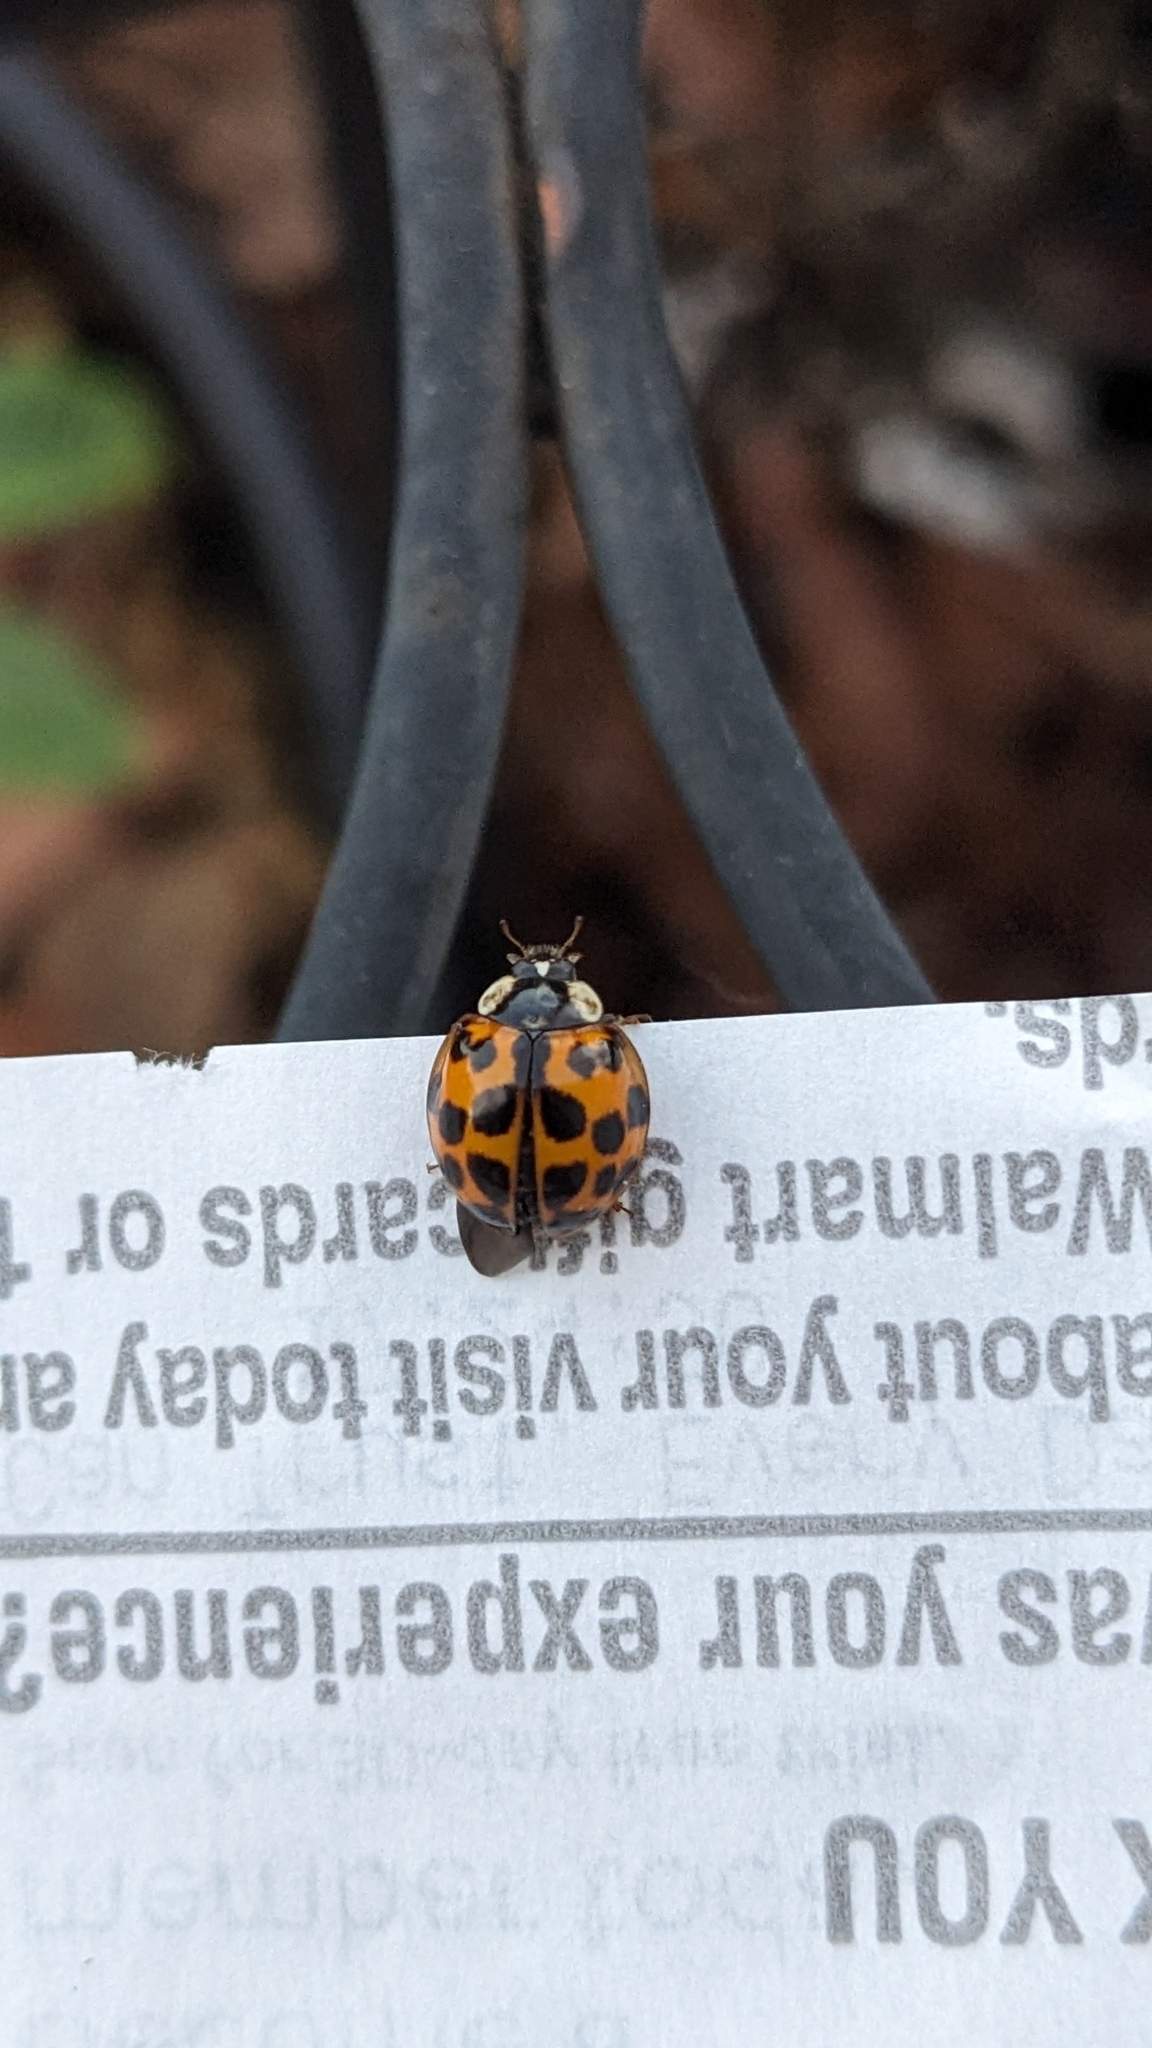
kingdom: Animalia
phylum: Arthropoda
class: Insecta
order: Coleoptera
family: Coccinellidae
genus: Harmonia
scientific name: Harmonia axyridis
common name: Harlequin ladybird
